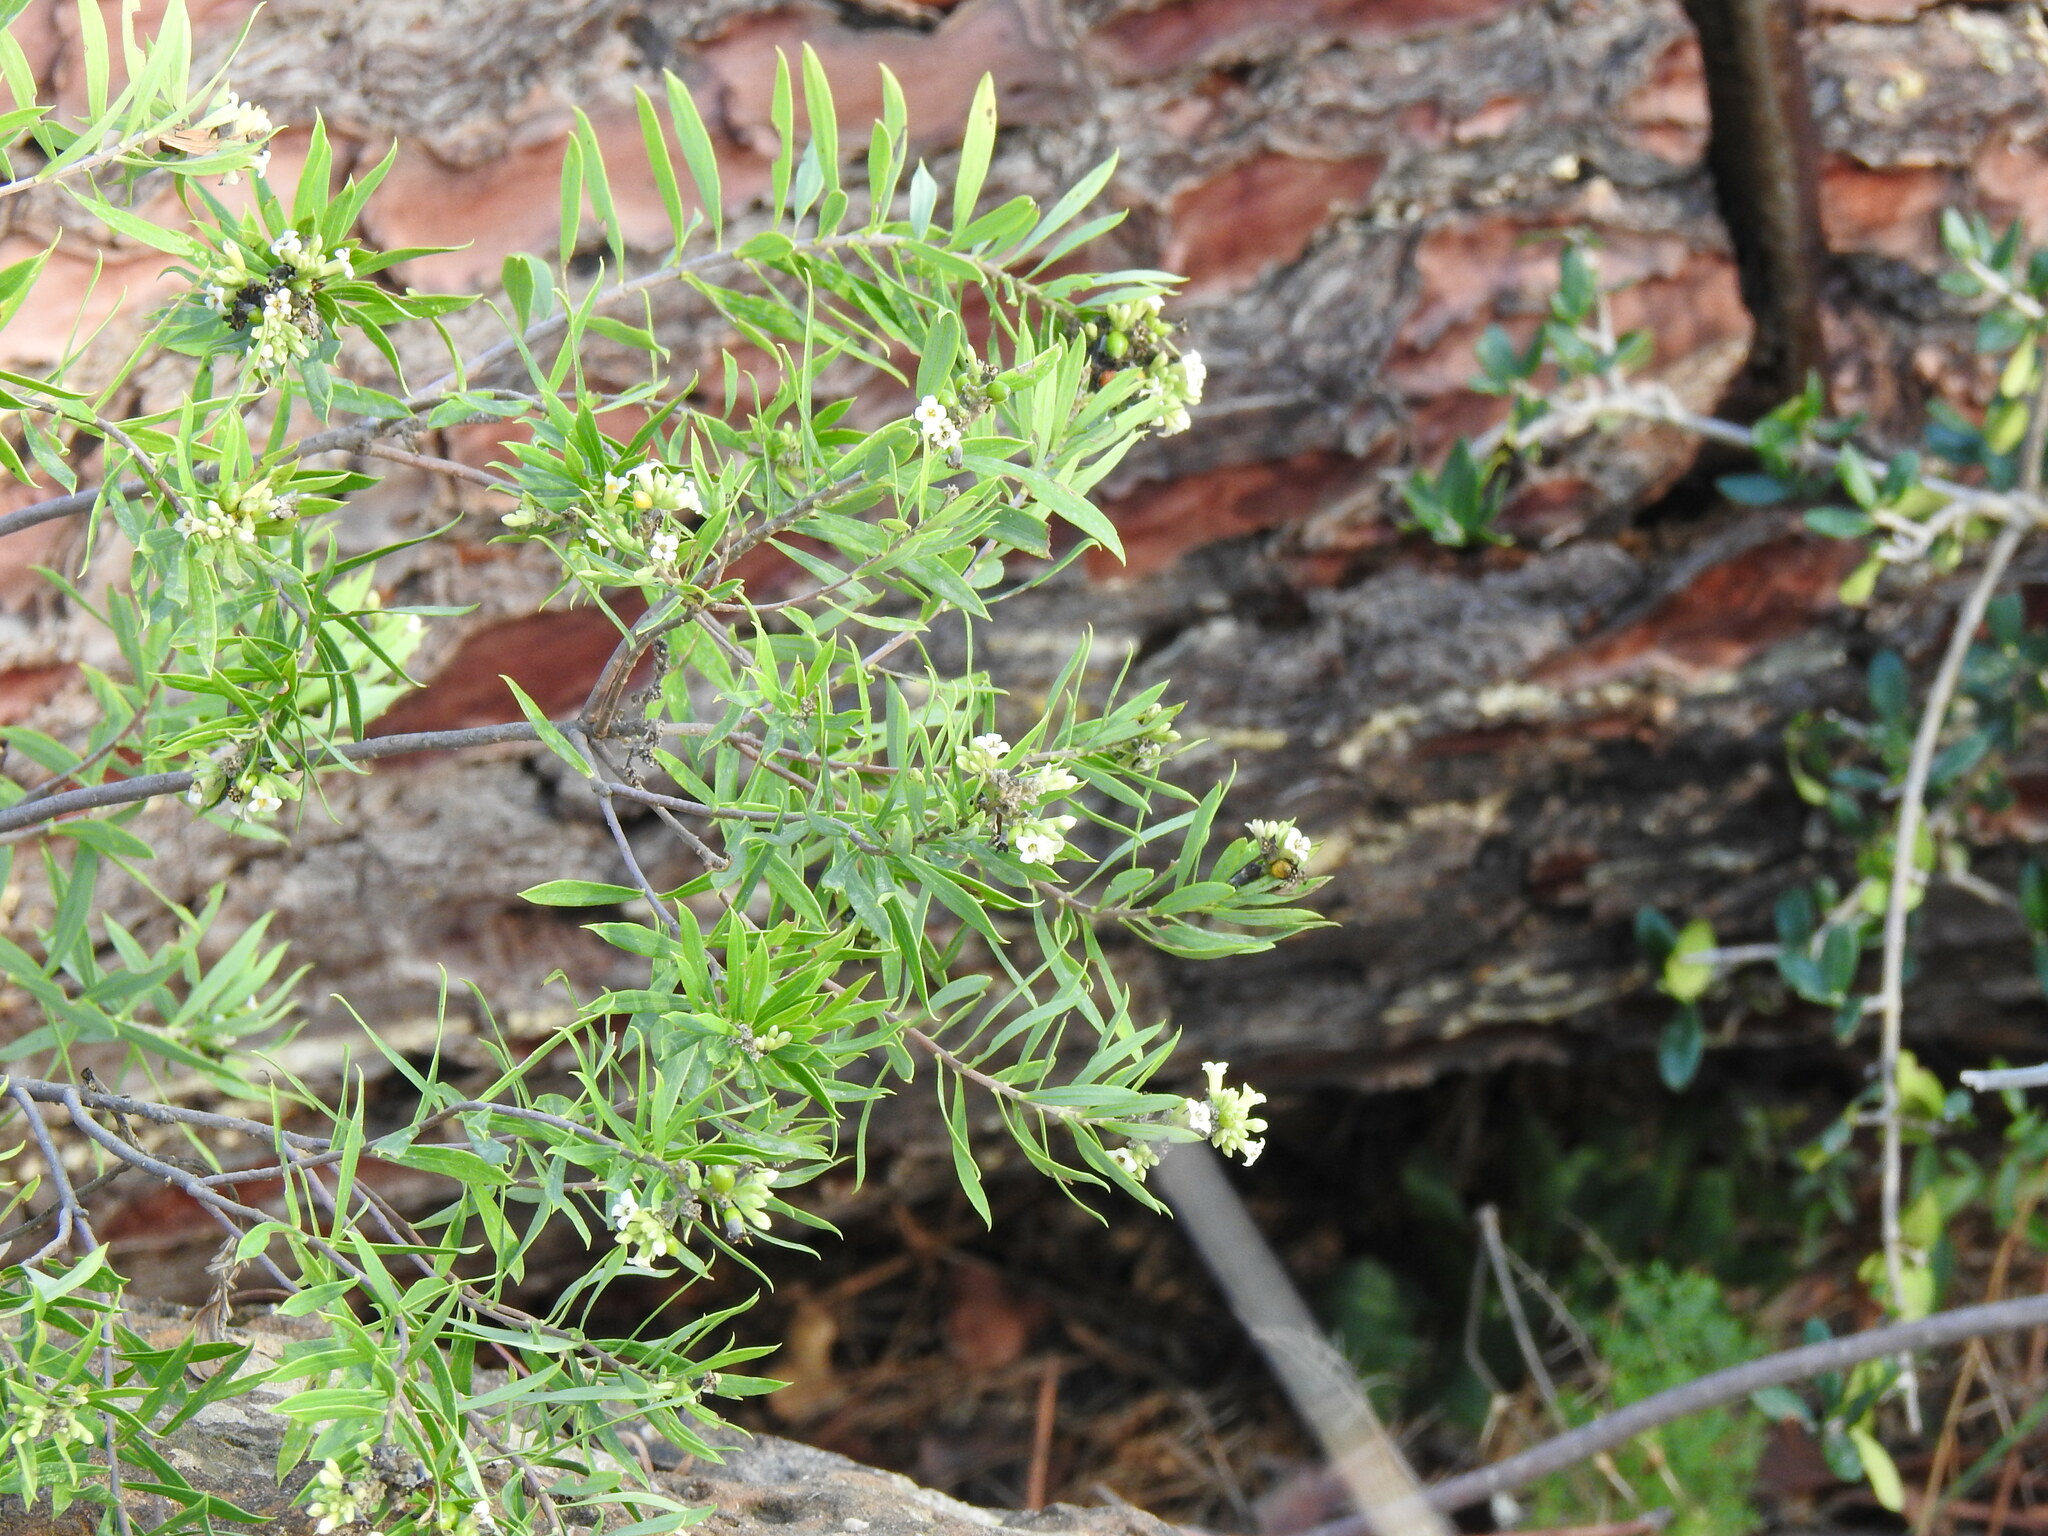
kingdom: Plantae
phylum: Tracheophyta
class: Magnoliopsida
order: Malvales
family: Thymelaeaceae
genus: Daphne
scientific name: Daphne gnidium
